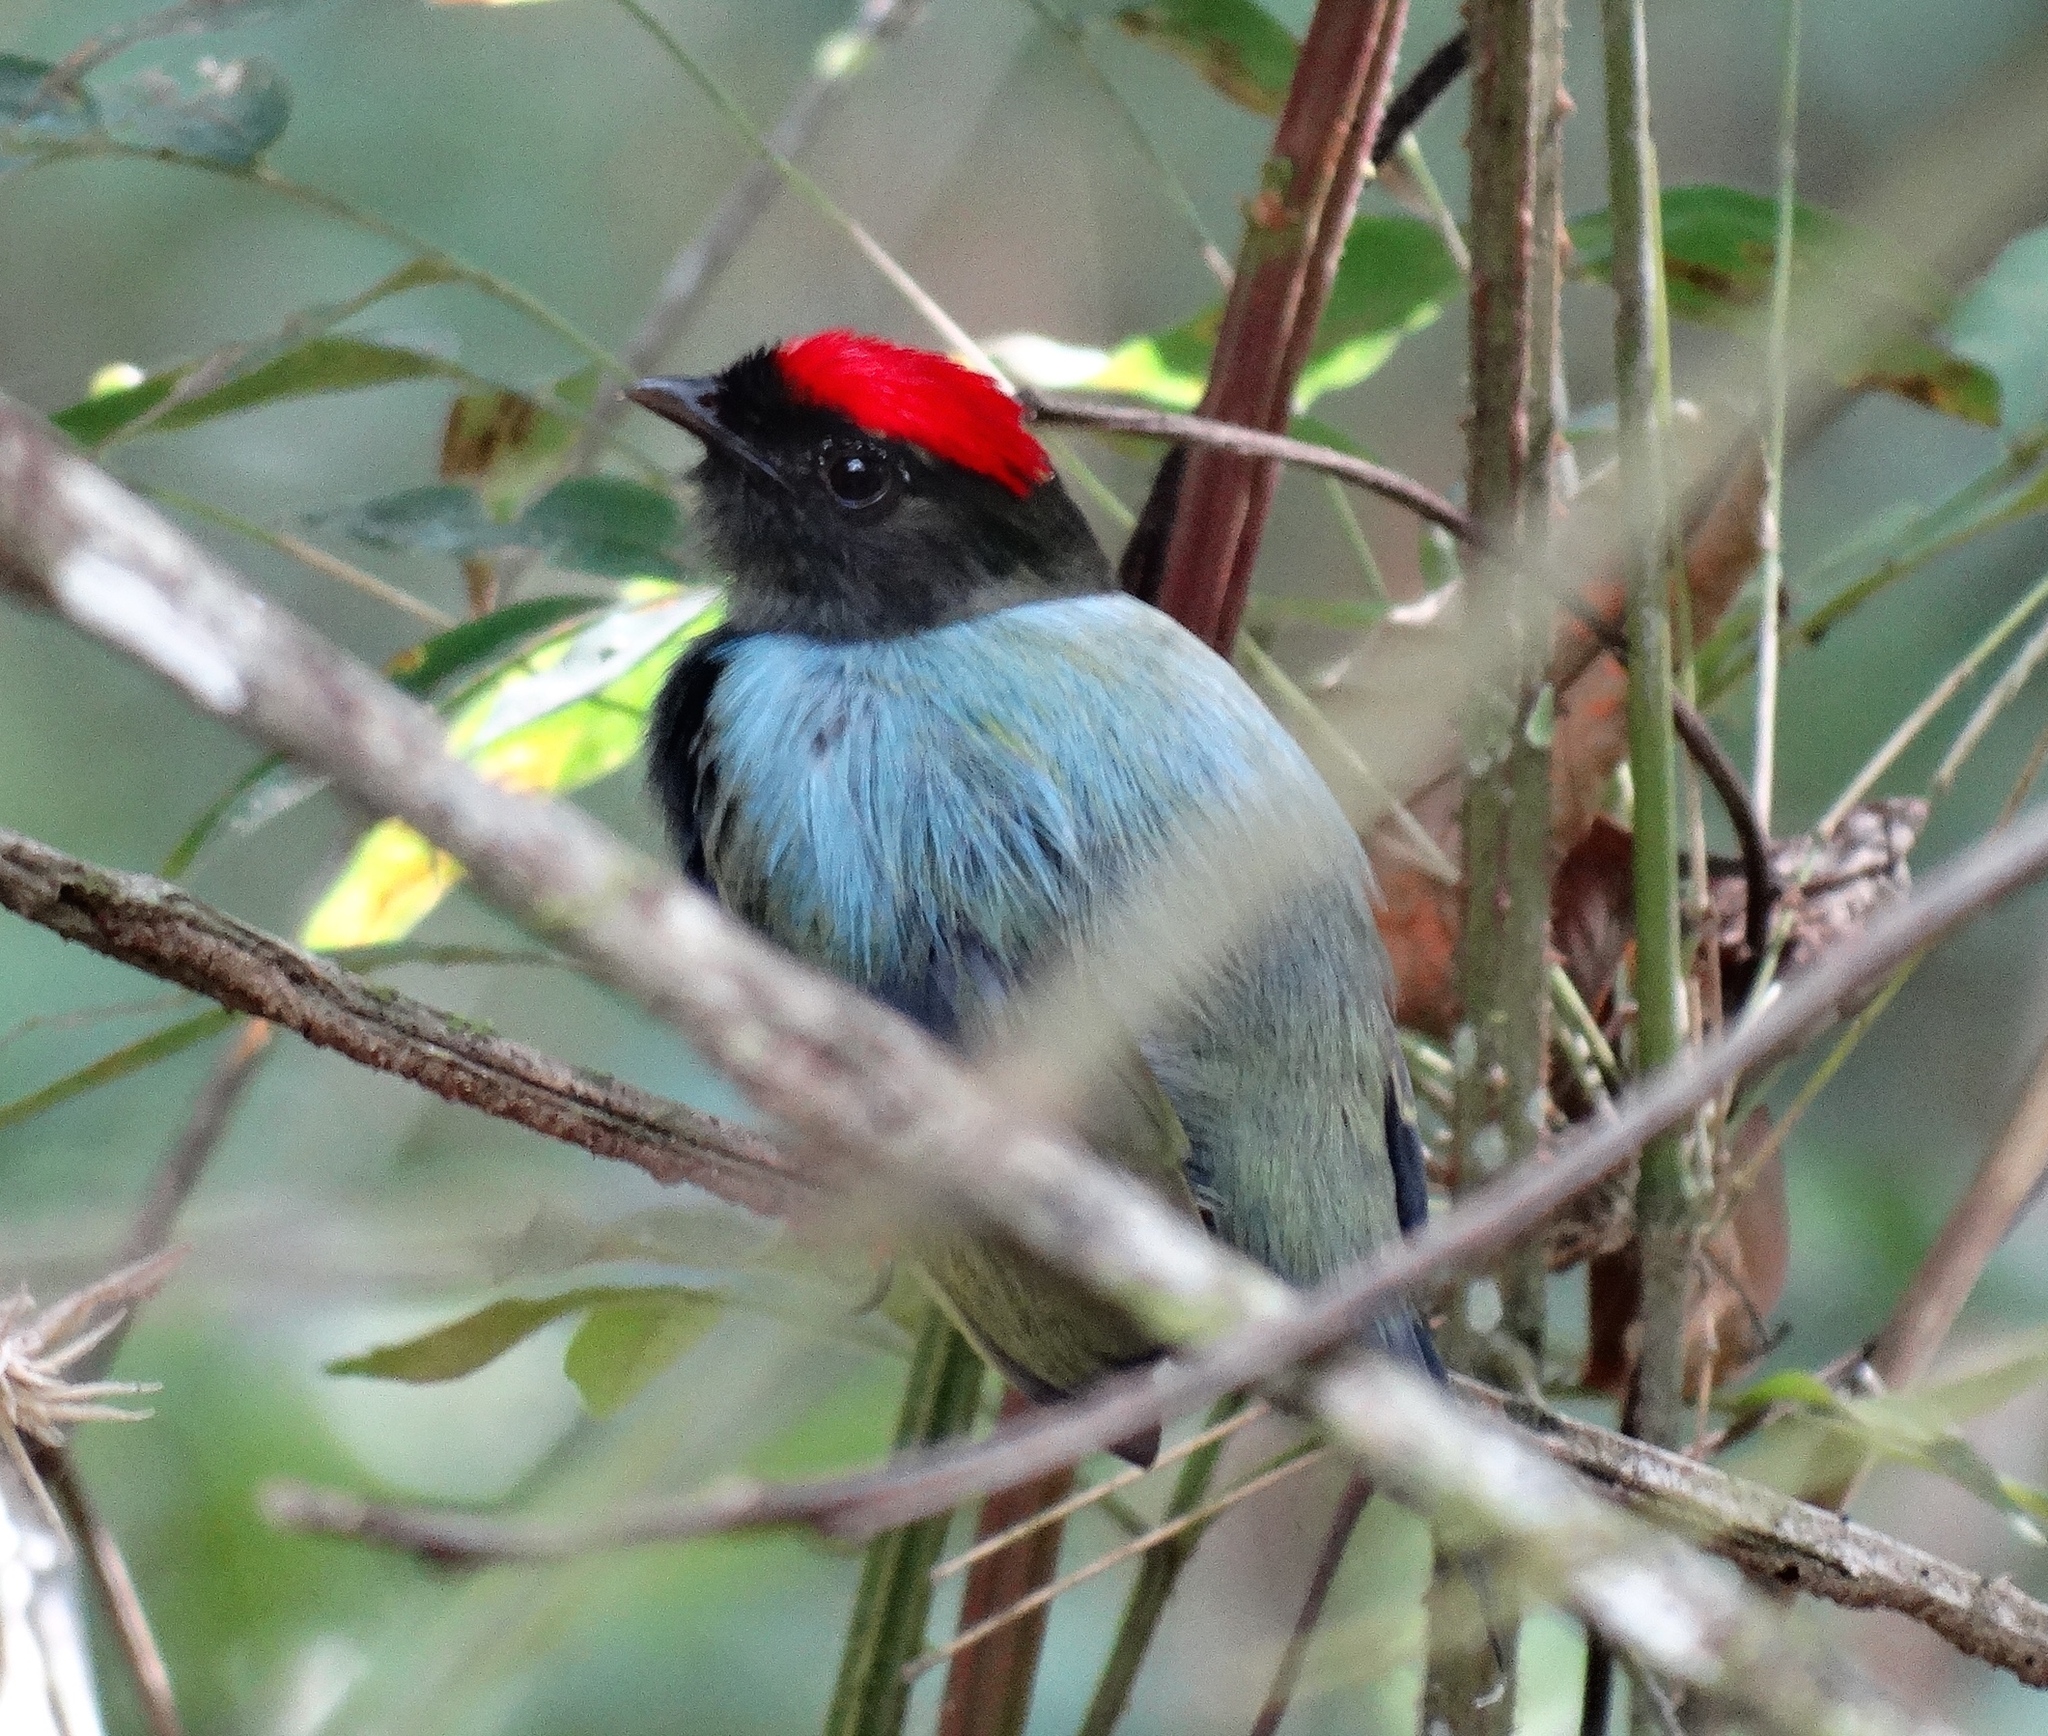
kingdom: Animalia
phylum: Chordata
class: Aves
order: Passeriformes
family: Pipridae
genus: Chiroxiphia
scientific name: Chiroxiphia lanceolata
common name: Lance-tailed manakin
